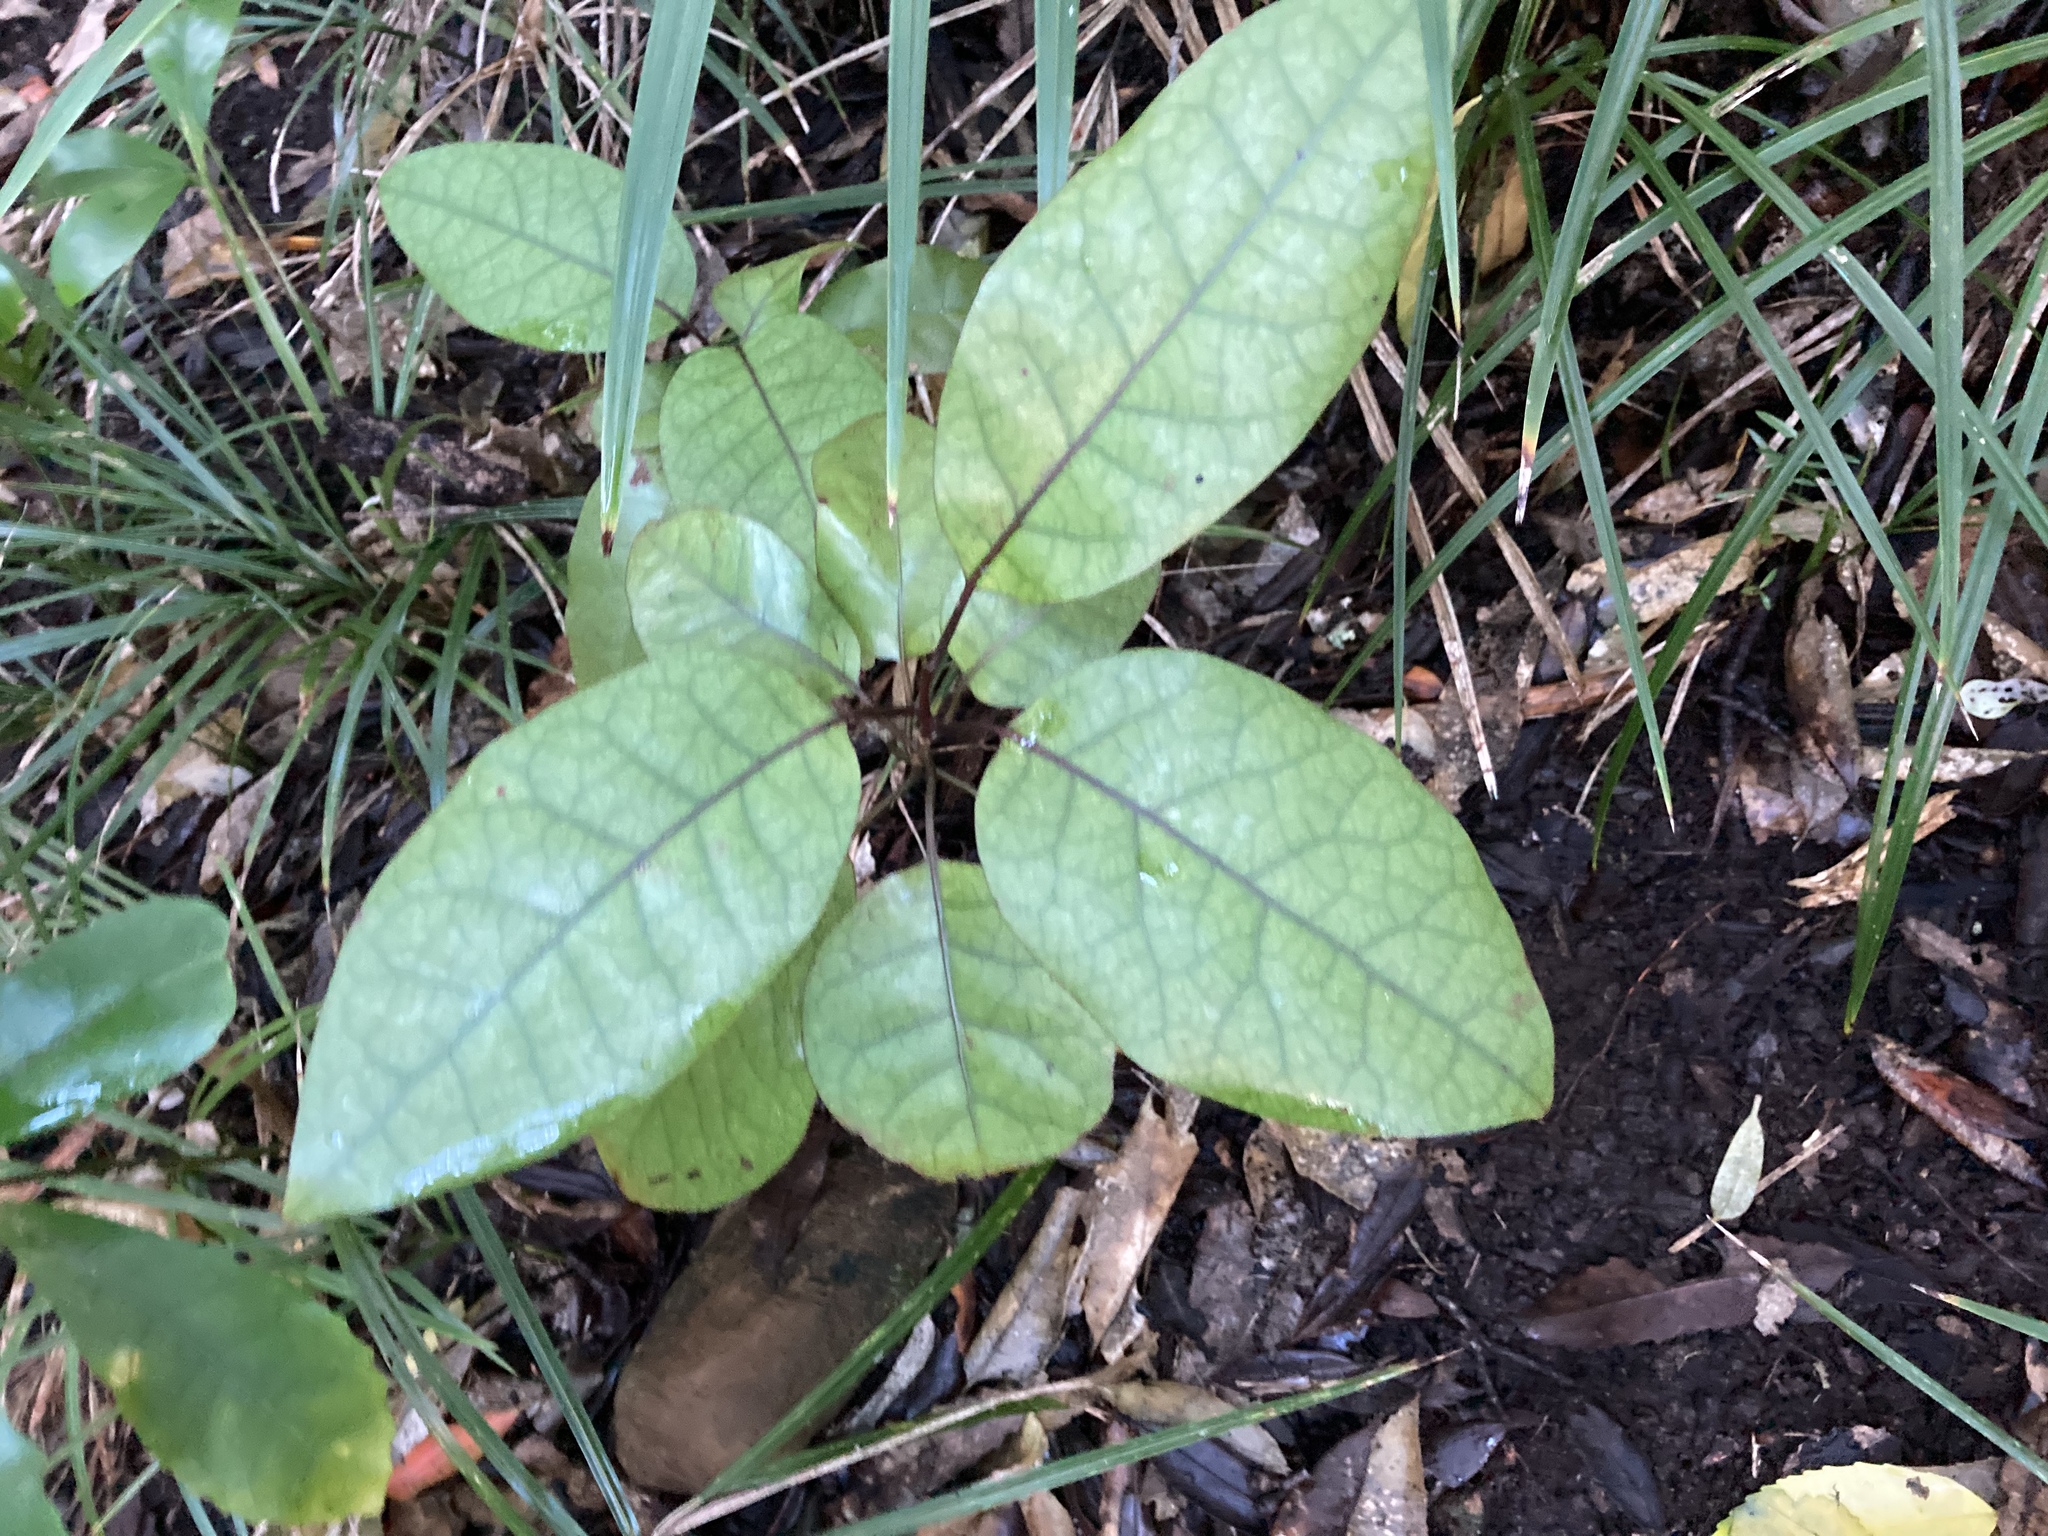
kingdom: Plantae
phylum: Tracheophyta
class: Magnoliopsida
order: Laurales
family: Lauraceae
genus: Litsea
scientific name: Litsea calicaris
